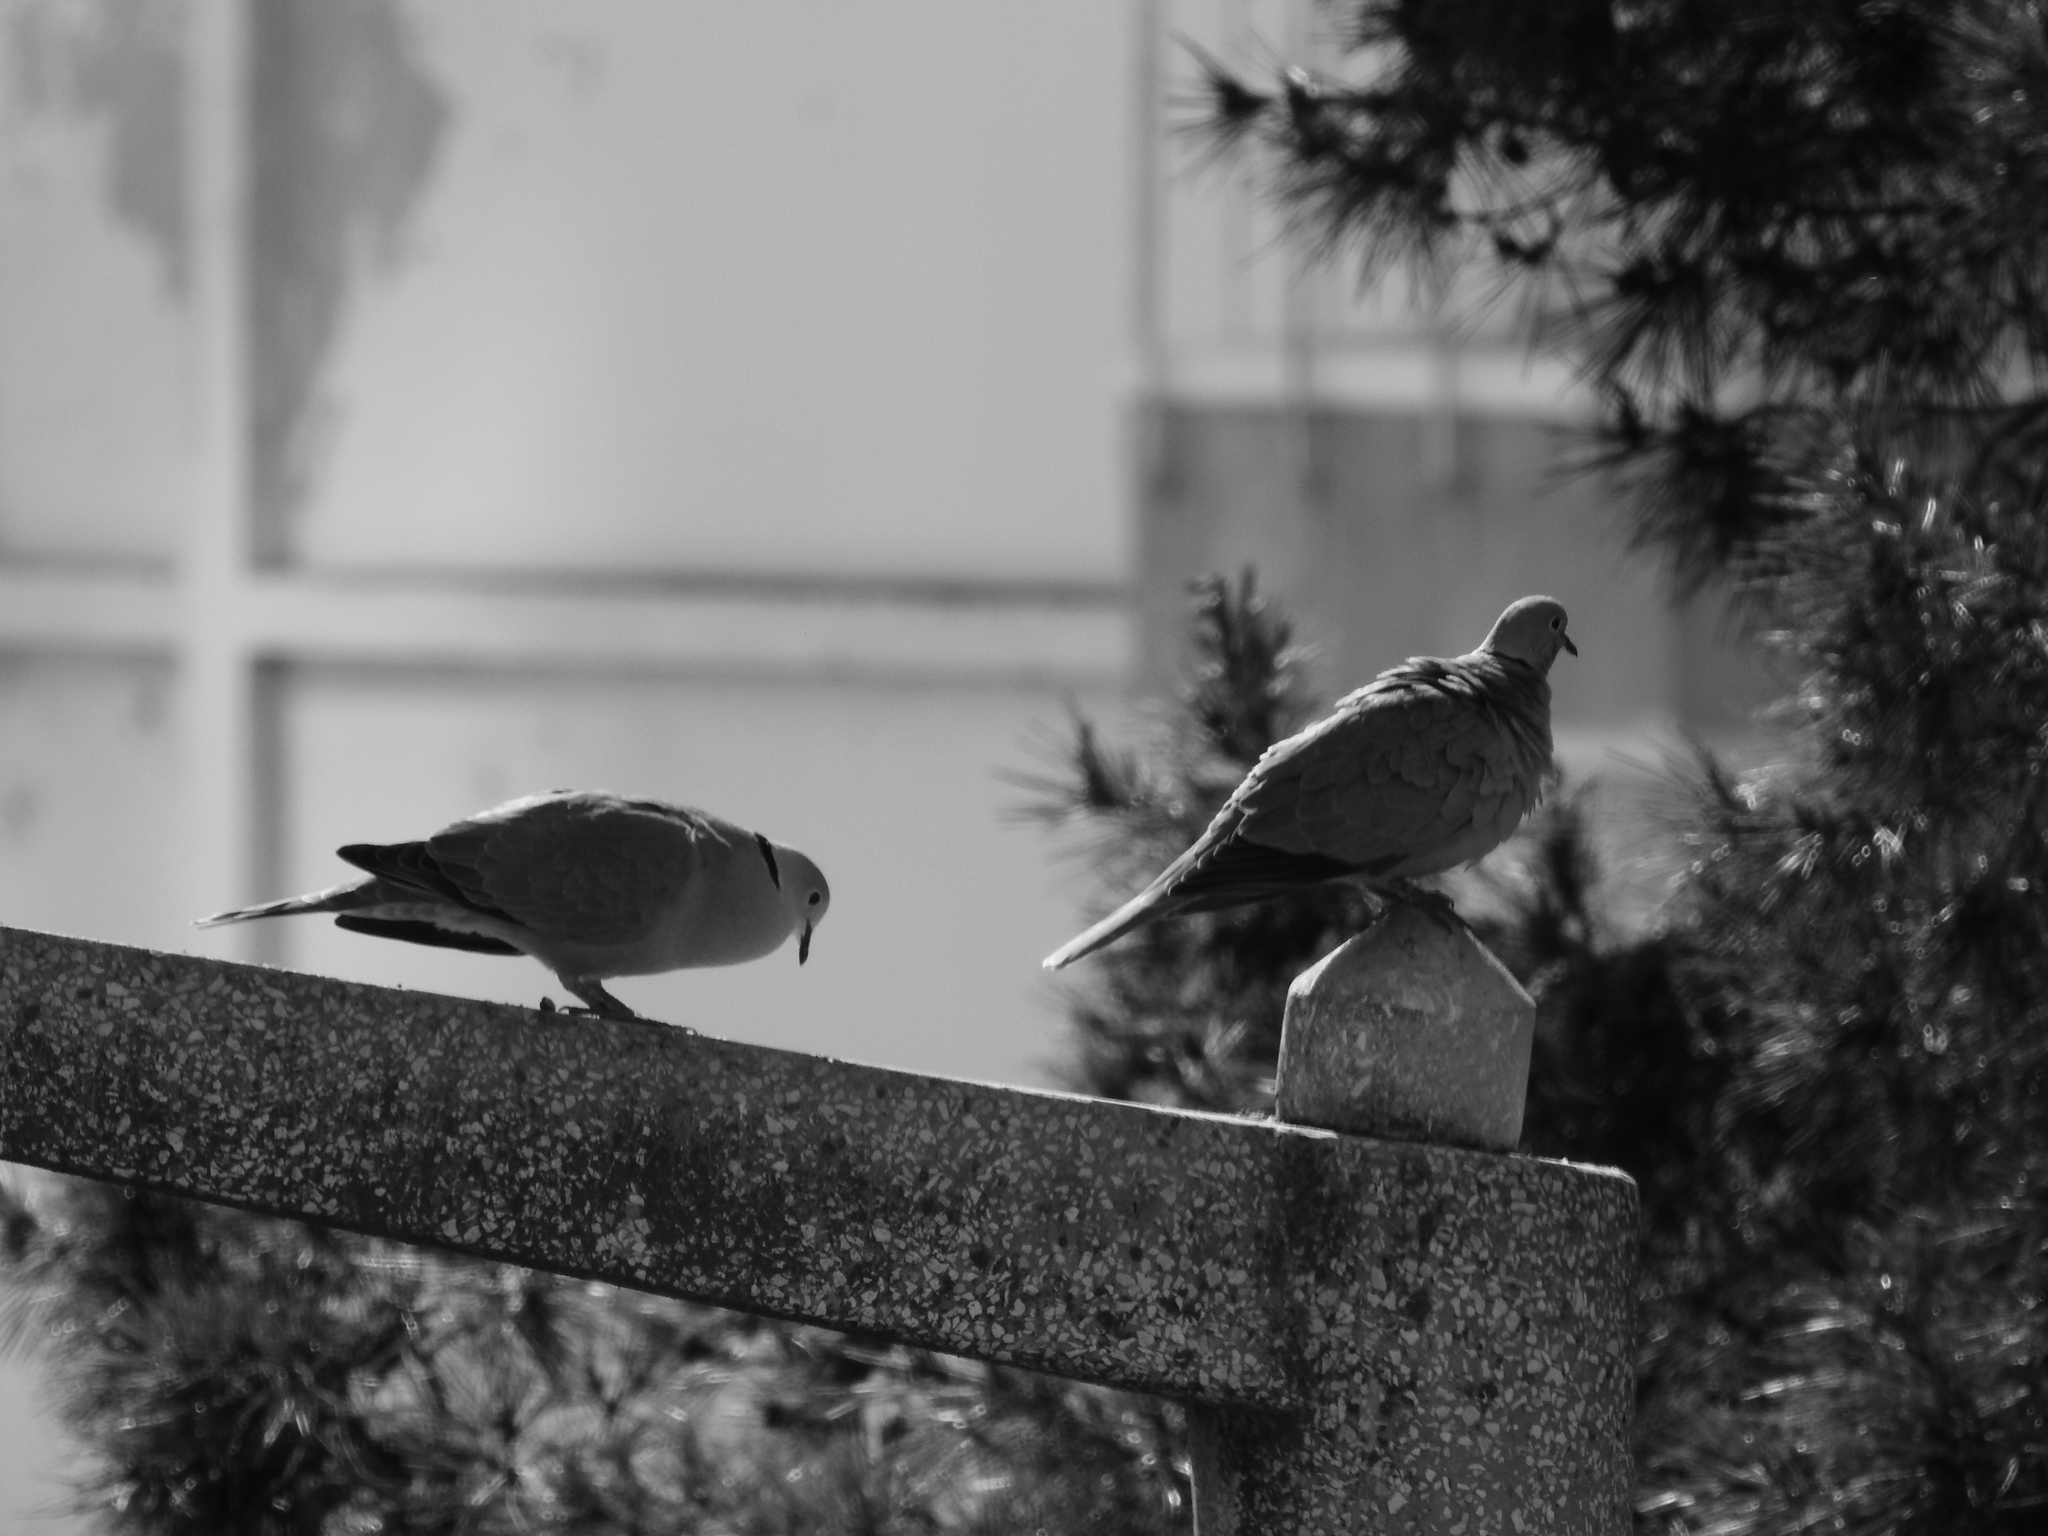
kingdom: Animalia
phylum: Chordata
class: Aves
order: Columbiformes
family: Columbidae
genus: Streptopelia
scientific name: Streptopelia decaocto
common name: Eurasian collared dove
